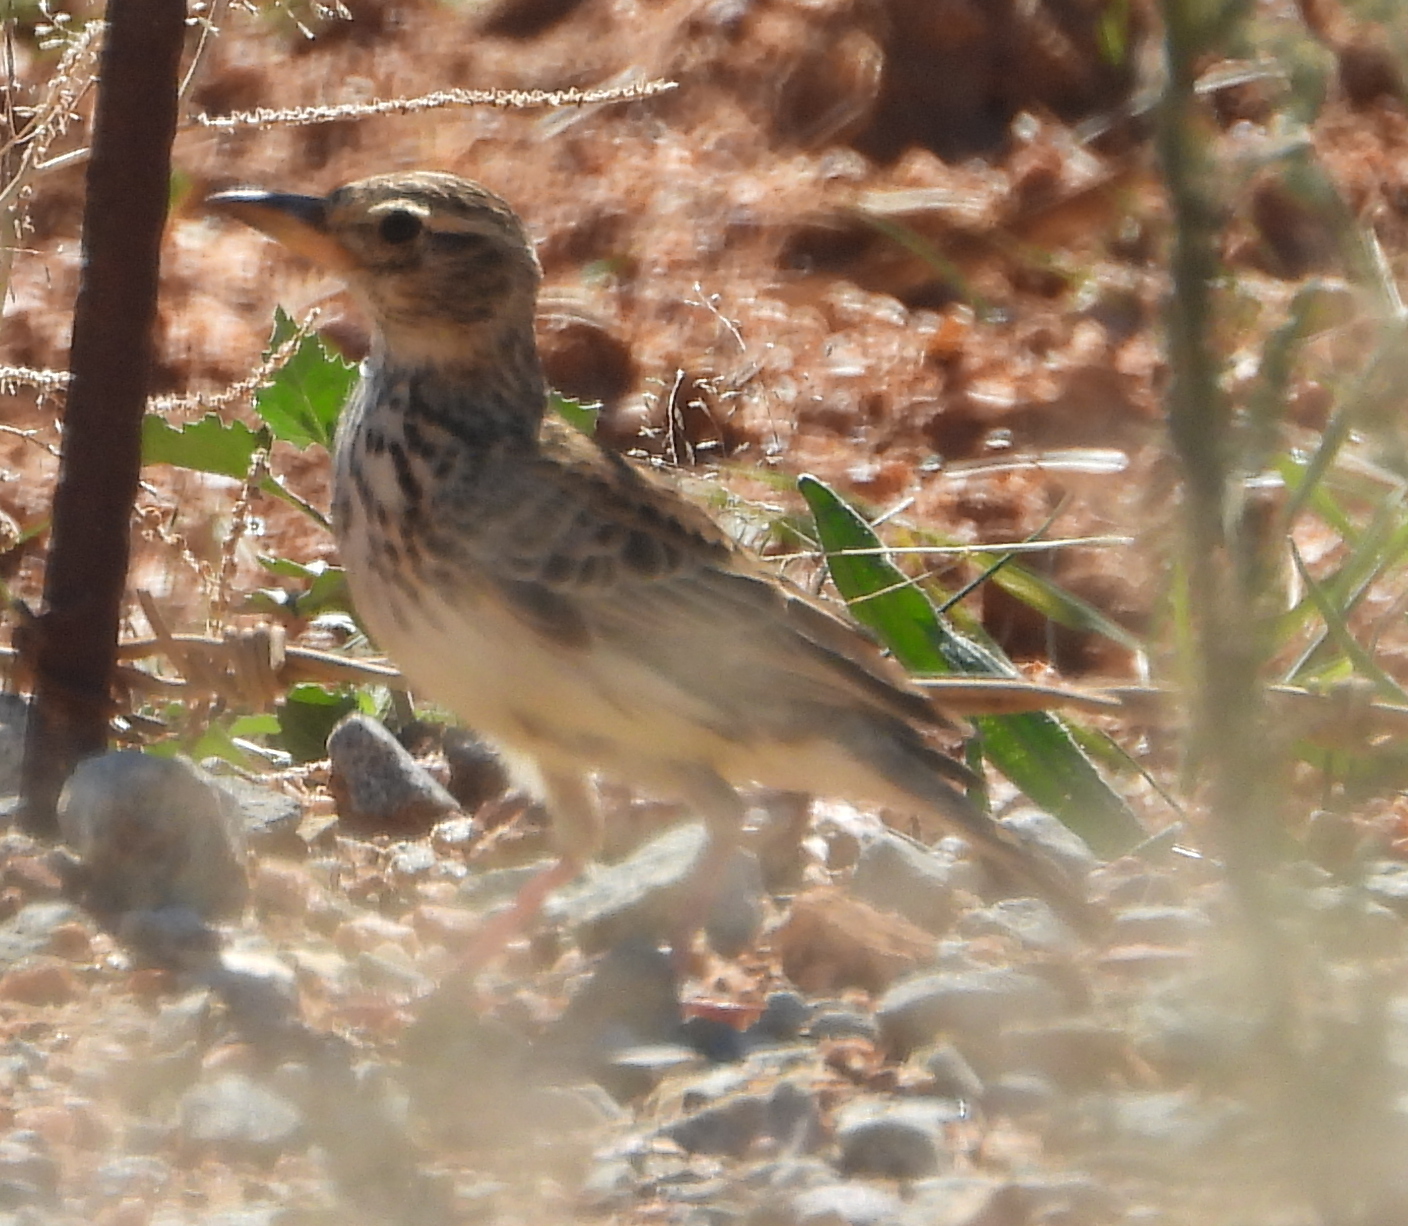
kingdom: Animalia
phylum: Chordata
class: Aves
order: Passeriformes
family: Alaudidae
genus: Galerida
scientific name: Galerida magnirostris
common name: Large-billed lark
